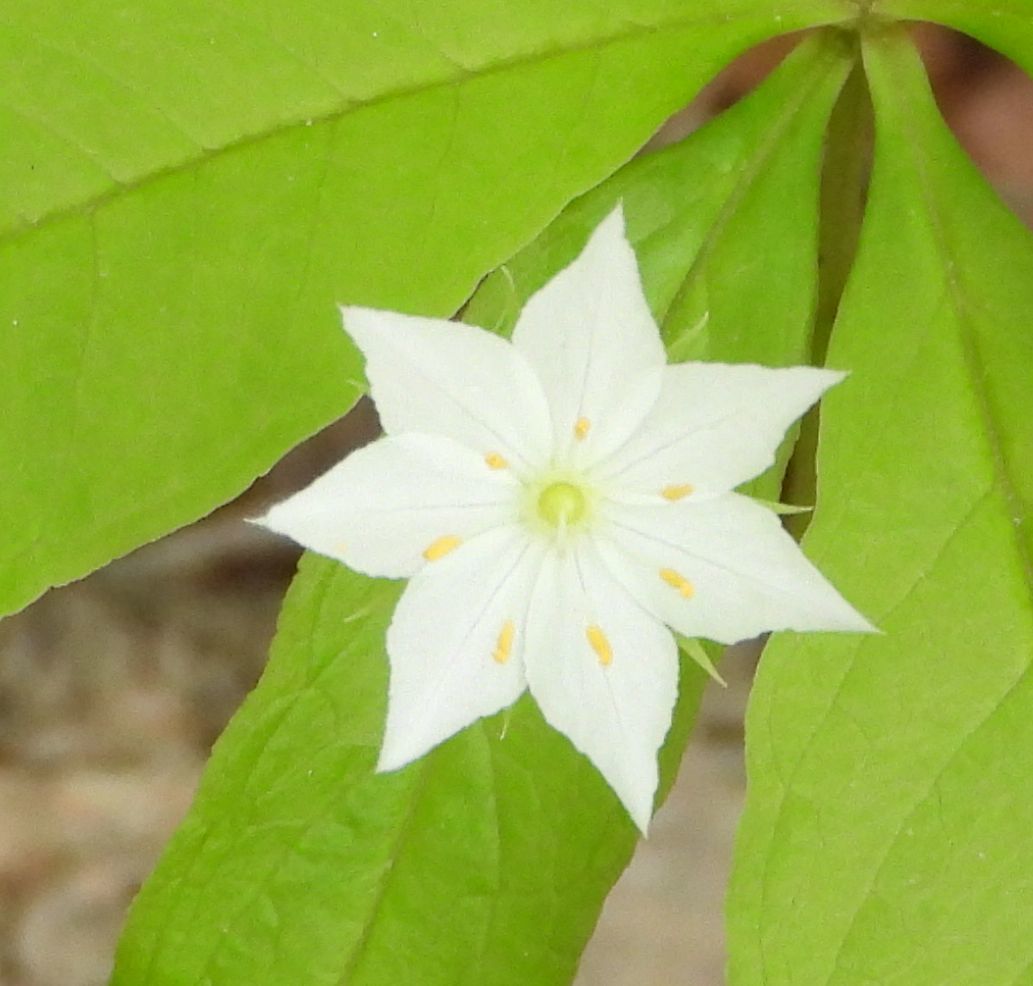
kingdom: Plantae
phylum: Tracheophyta
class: Magnoliopsida
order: Ericales
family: Primulaceae
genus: Lysimachia
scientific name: Lysimachia borealis
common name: American starflower
